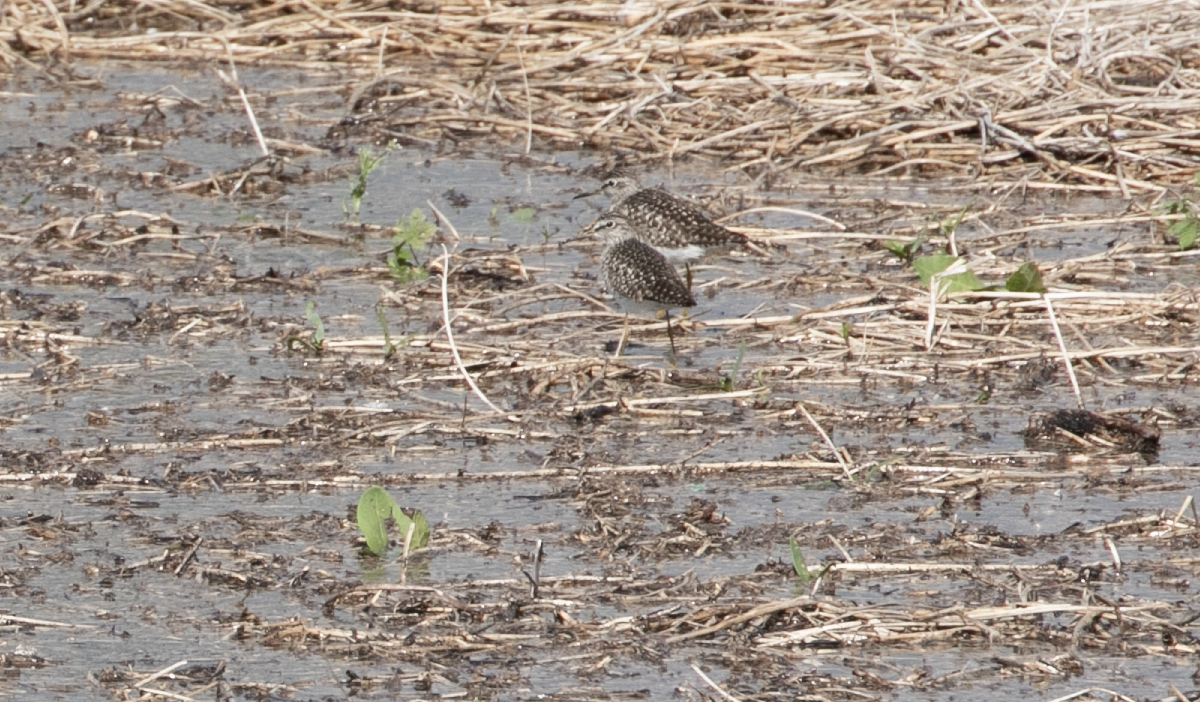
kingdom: Animalia
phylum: Chordata
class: Aves
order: Charadriiformes
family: Scolopacidae
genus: Tringa
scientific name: Tringa glareola
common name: Wood sandpiper
